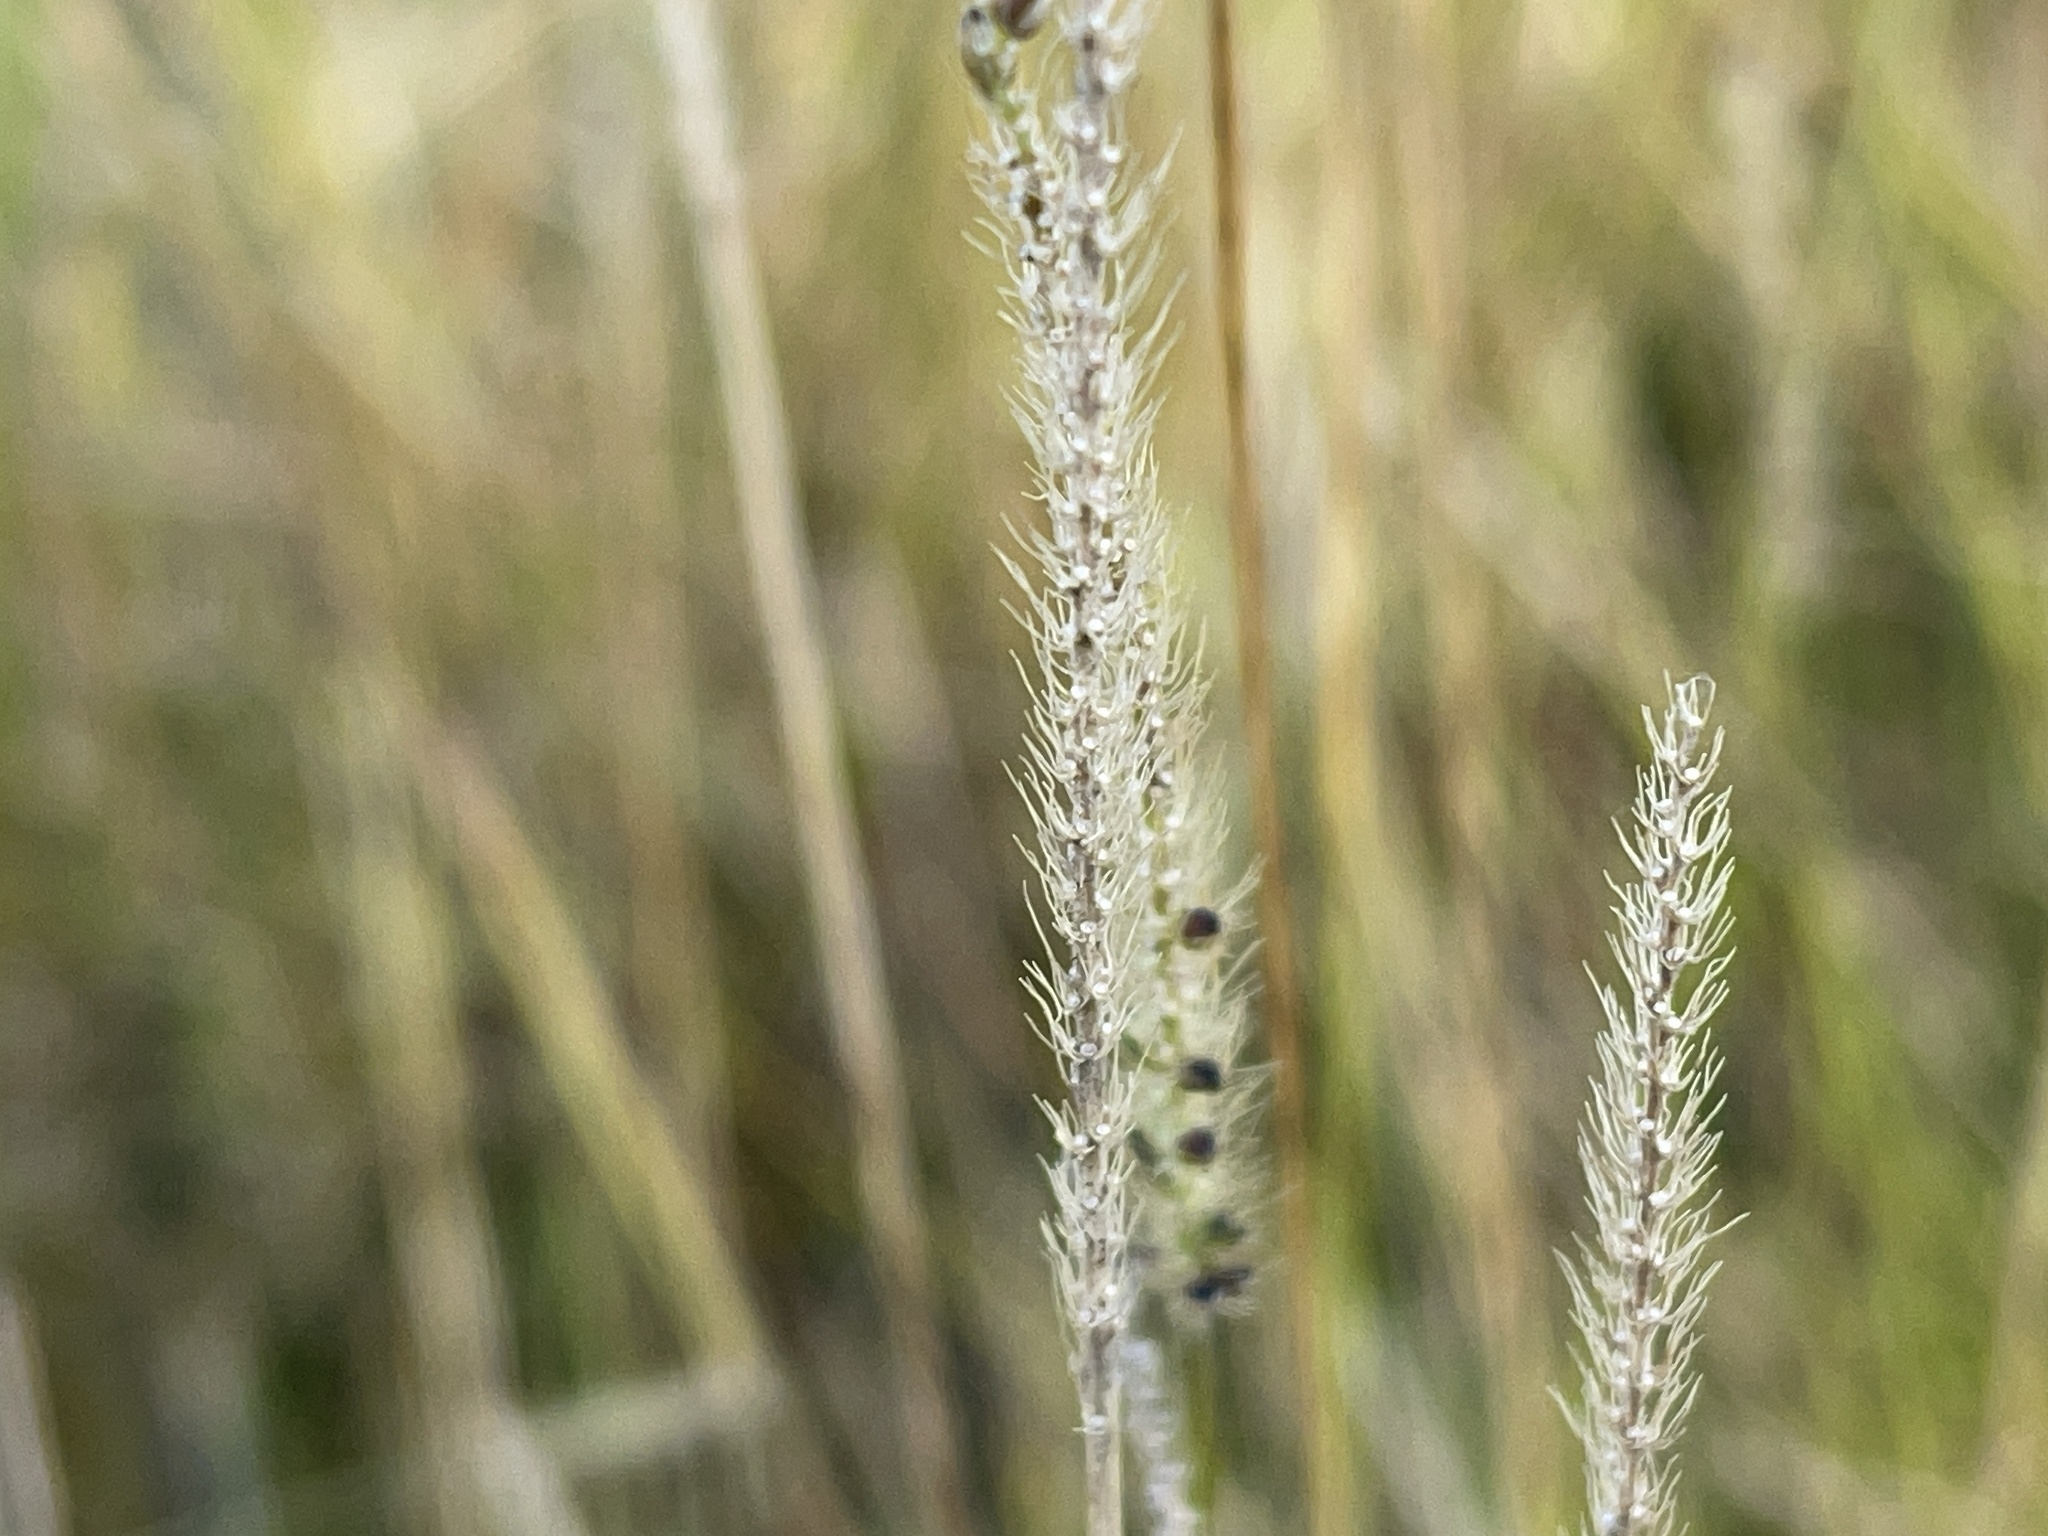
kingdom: Plantae
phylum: Tracheophyta
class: Liliopsida
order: Poales
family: Poaceae
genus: Setaria
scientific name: Setaria parviflora
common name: Knotroot bristle-grass
